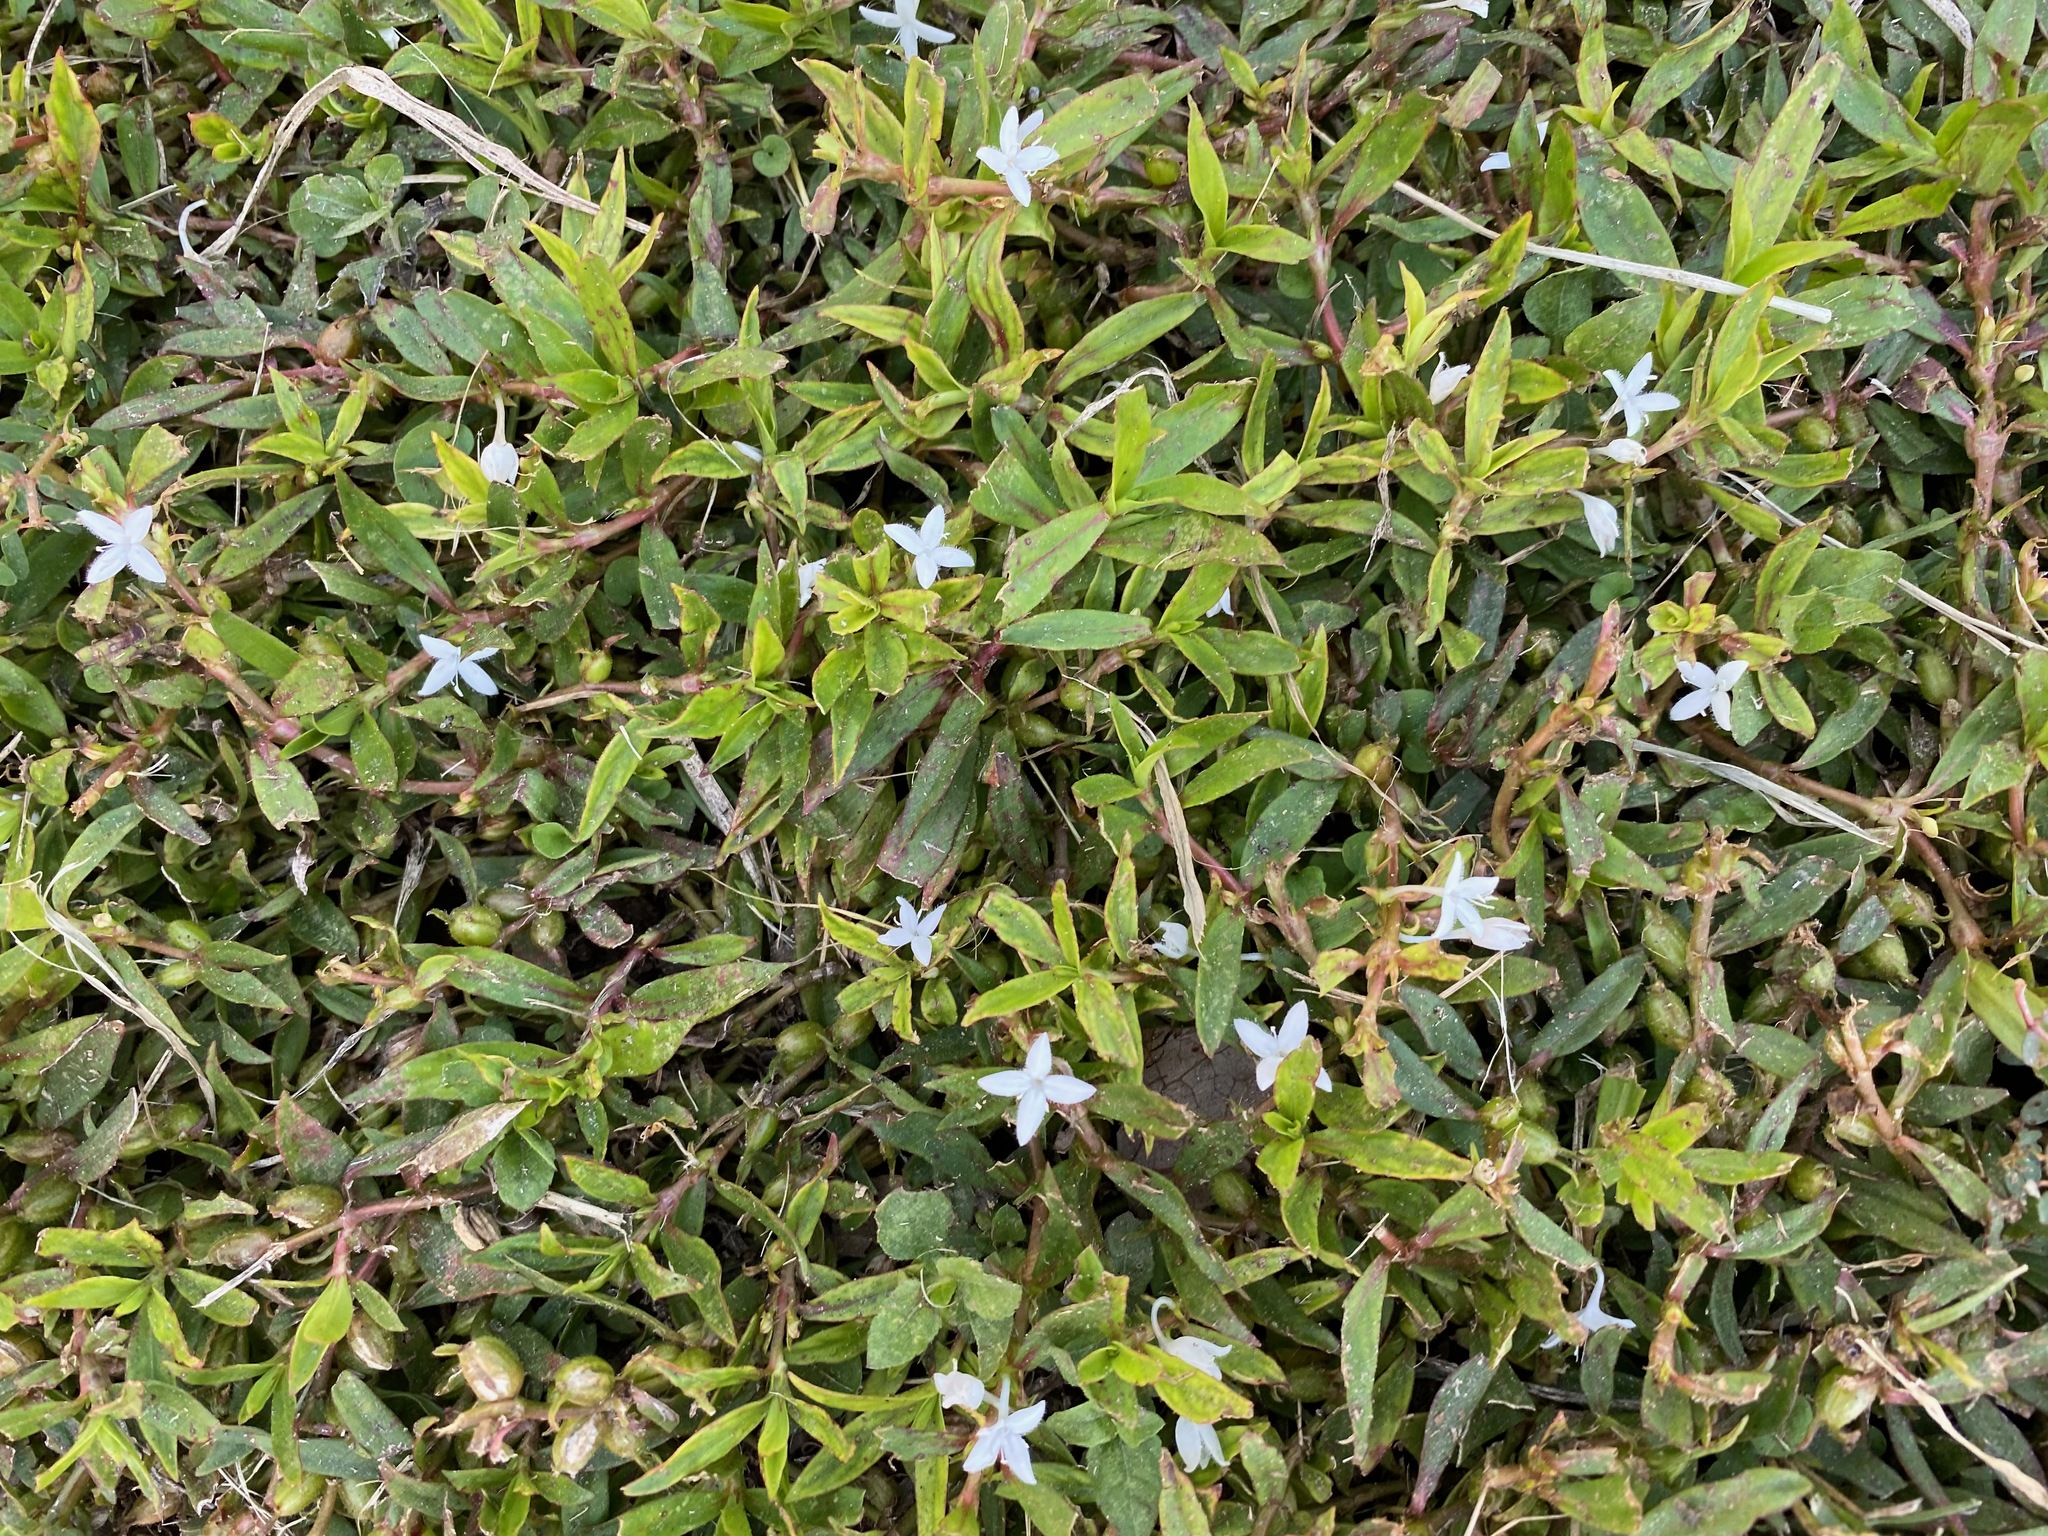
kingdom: Plantae
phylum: Tracheophyta
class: Magnoliopsida
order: Gentianales
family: Rubiaceae
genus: Diodia
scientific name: Diodia virginiana
